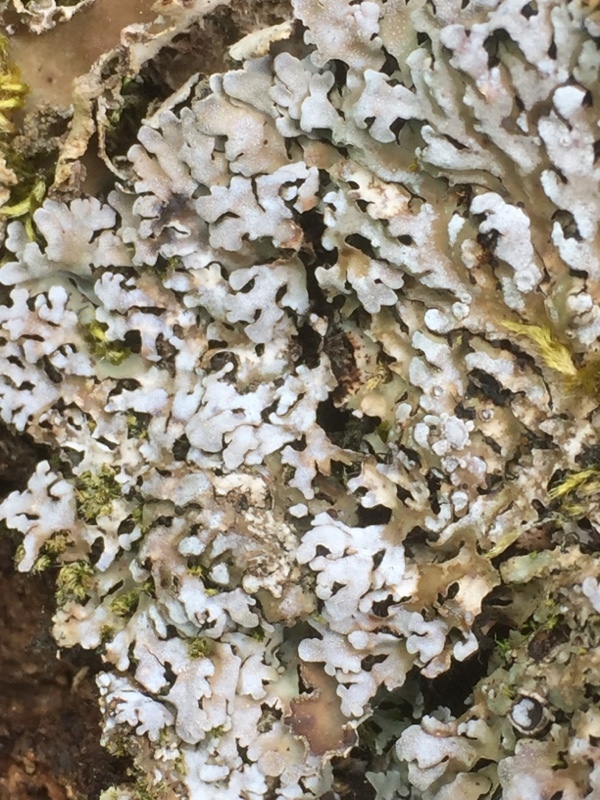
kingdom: Fungi
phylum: Ascomycota
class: Lecanoromycetes
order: Caliciales
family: Physciaceae
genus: Physconia
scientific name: Physconia distorta
